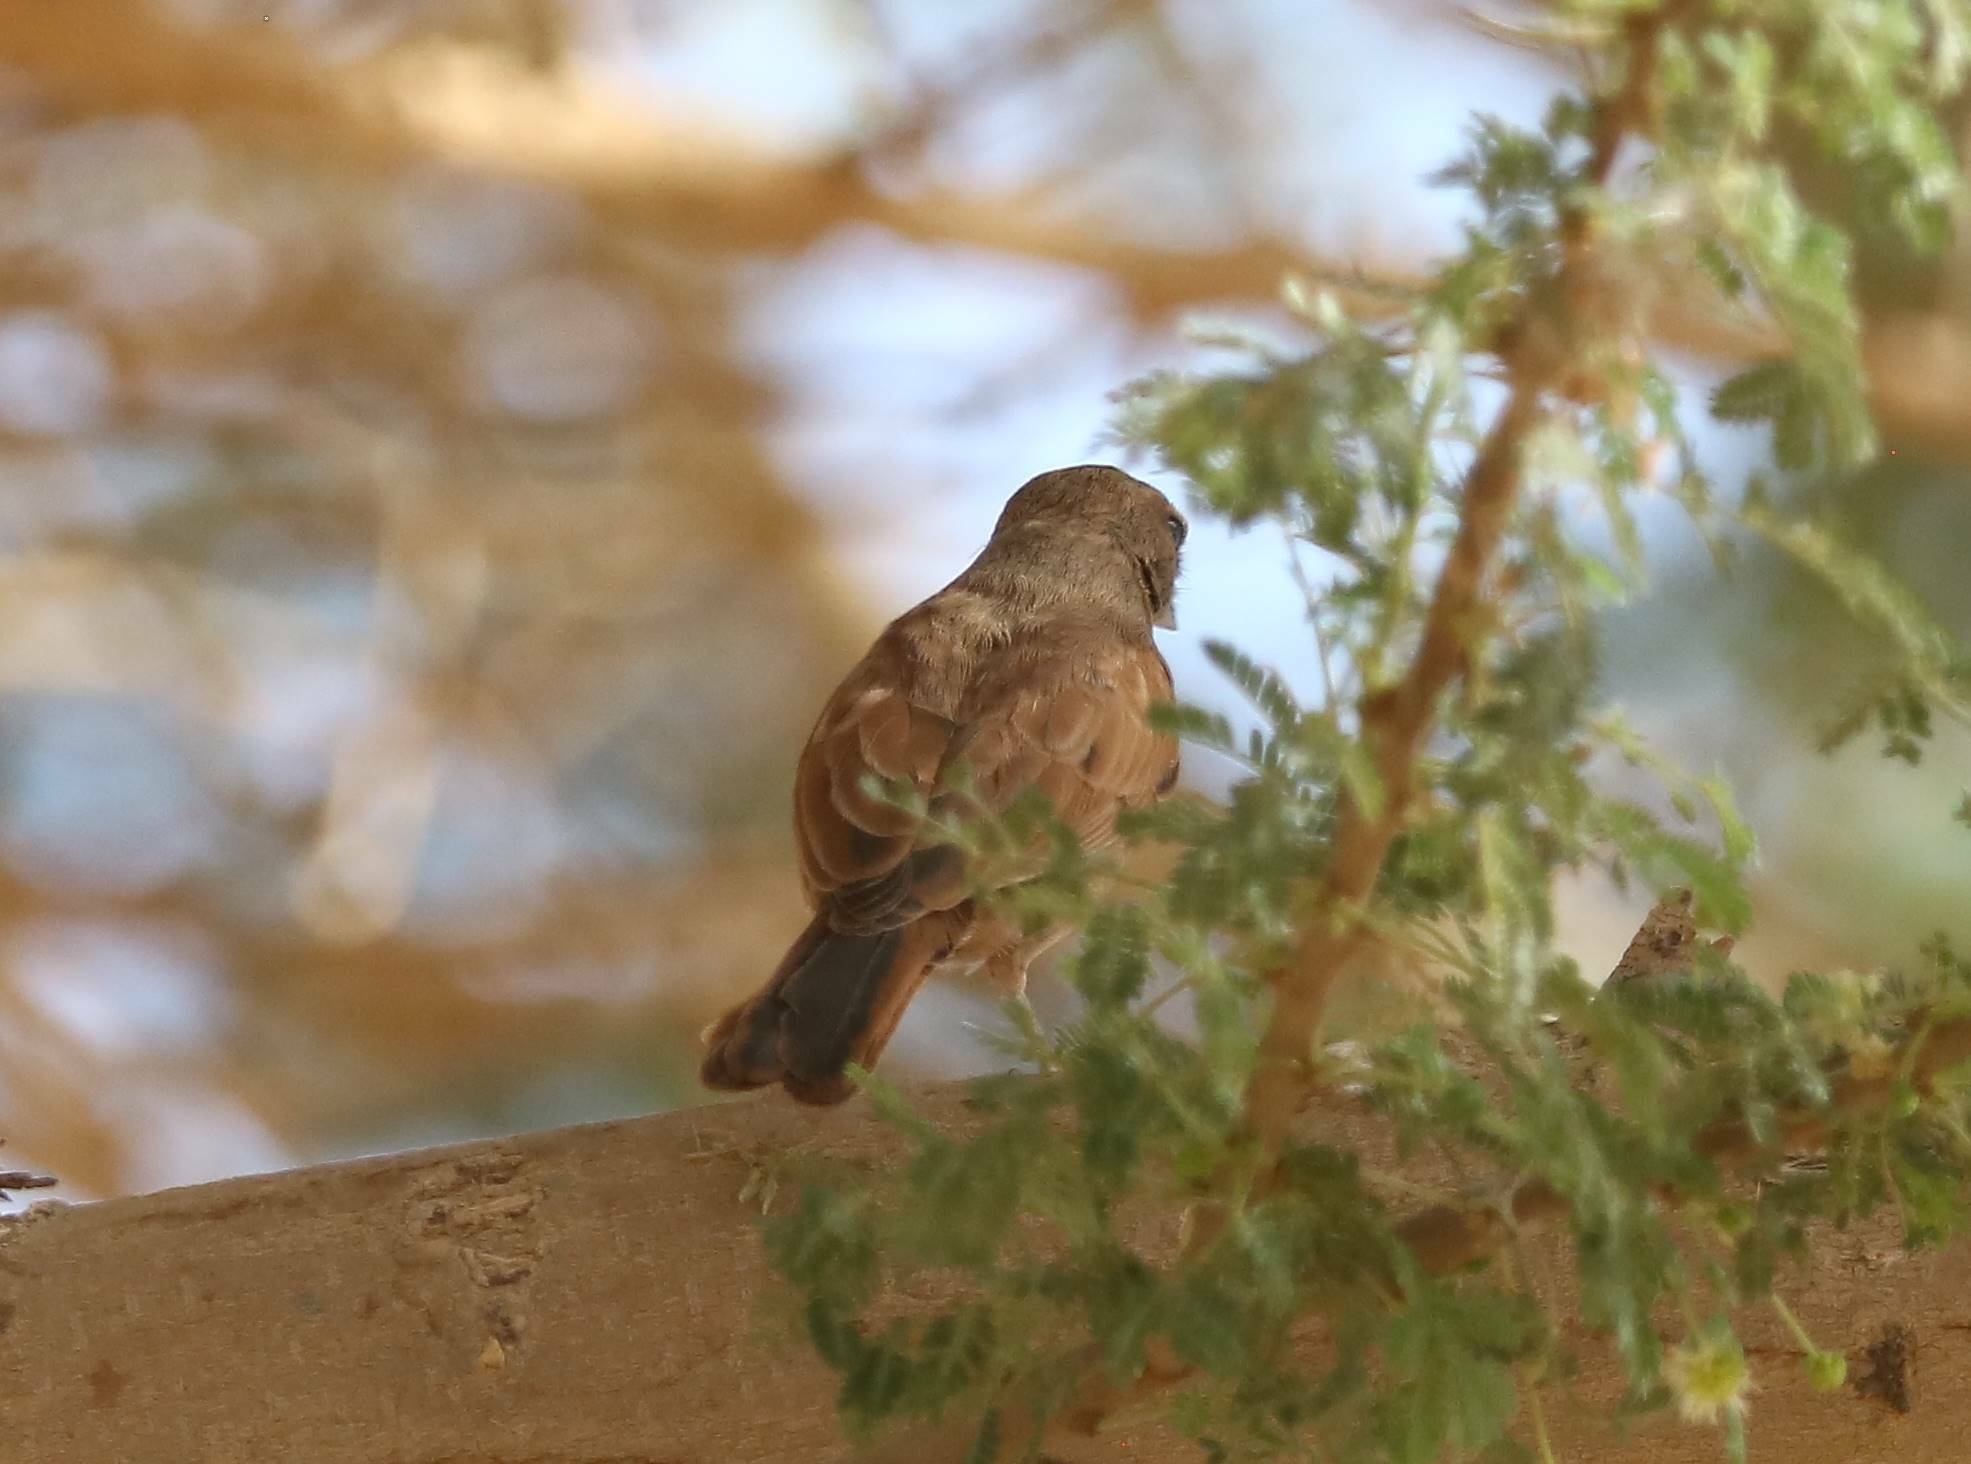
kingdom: Animalia
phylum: Chordata
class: Aves
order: Passeriformes
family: Emberizidae
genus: Emberiza
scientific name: Emberiza sahari
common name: House bunting
